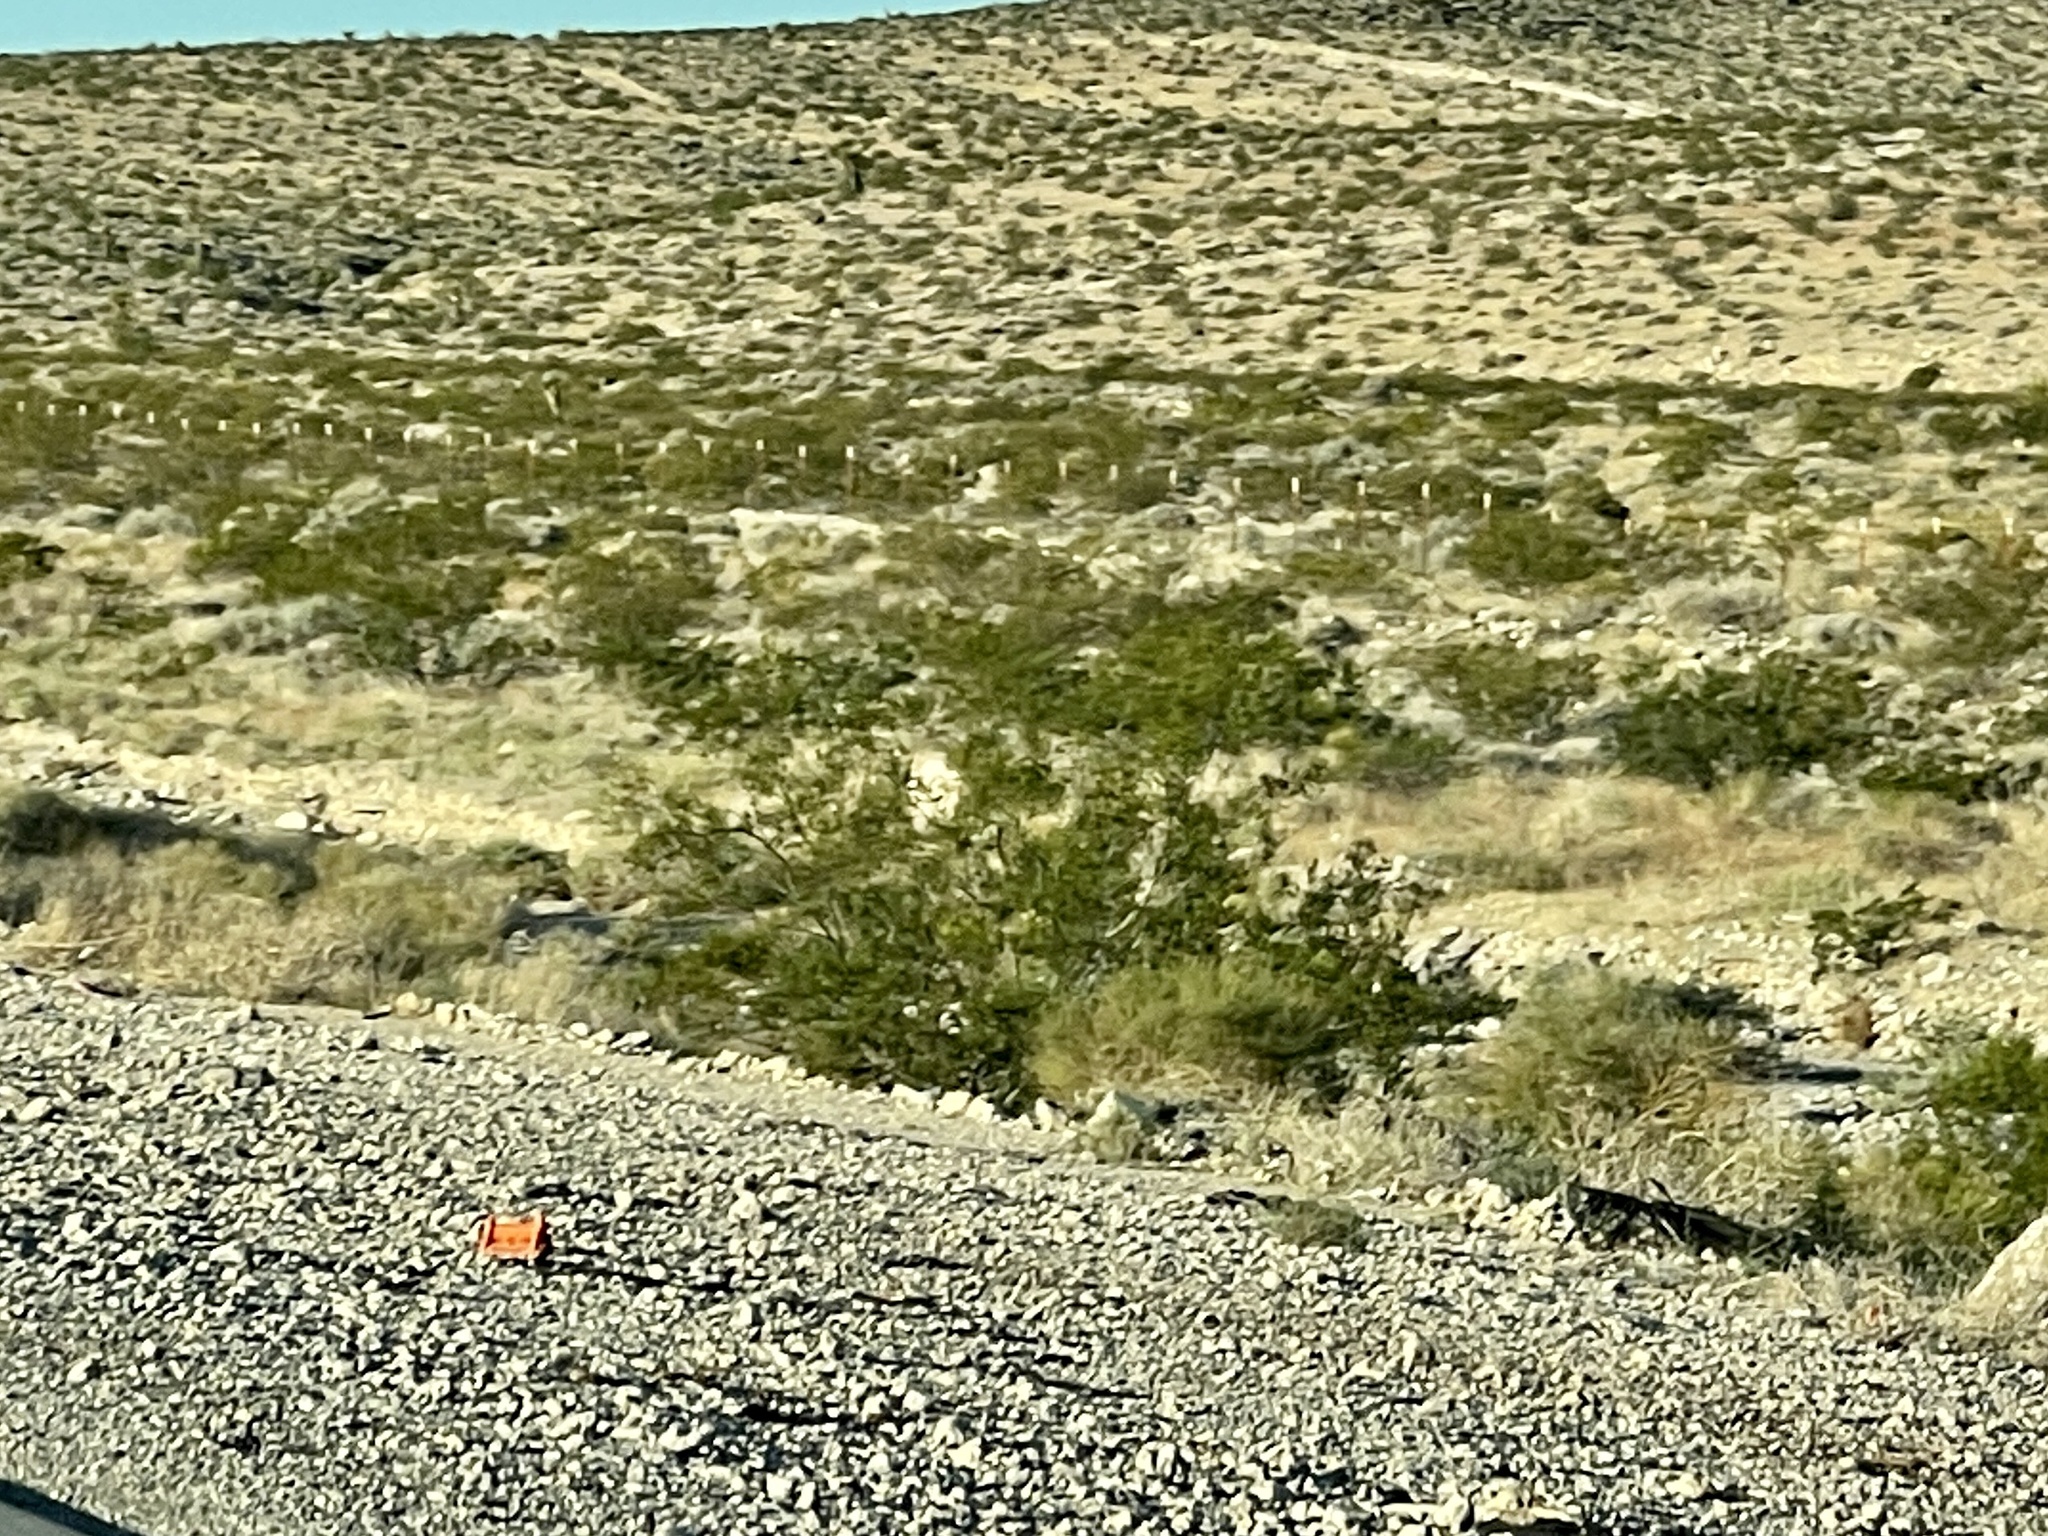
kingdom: Plantae
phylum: Tracheophyta
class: Magnoliopsida
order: Zygophyllales
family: Zygophyllaceae
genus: Larrea
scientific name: Larrea tridentata
